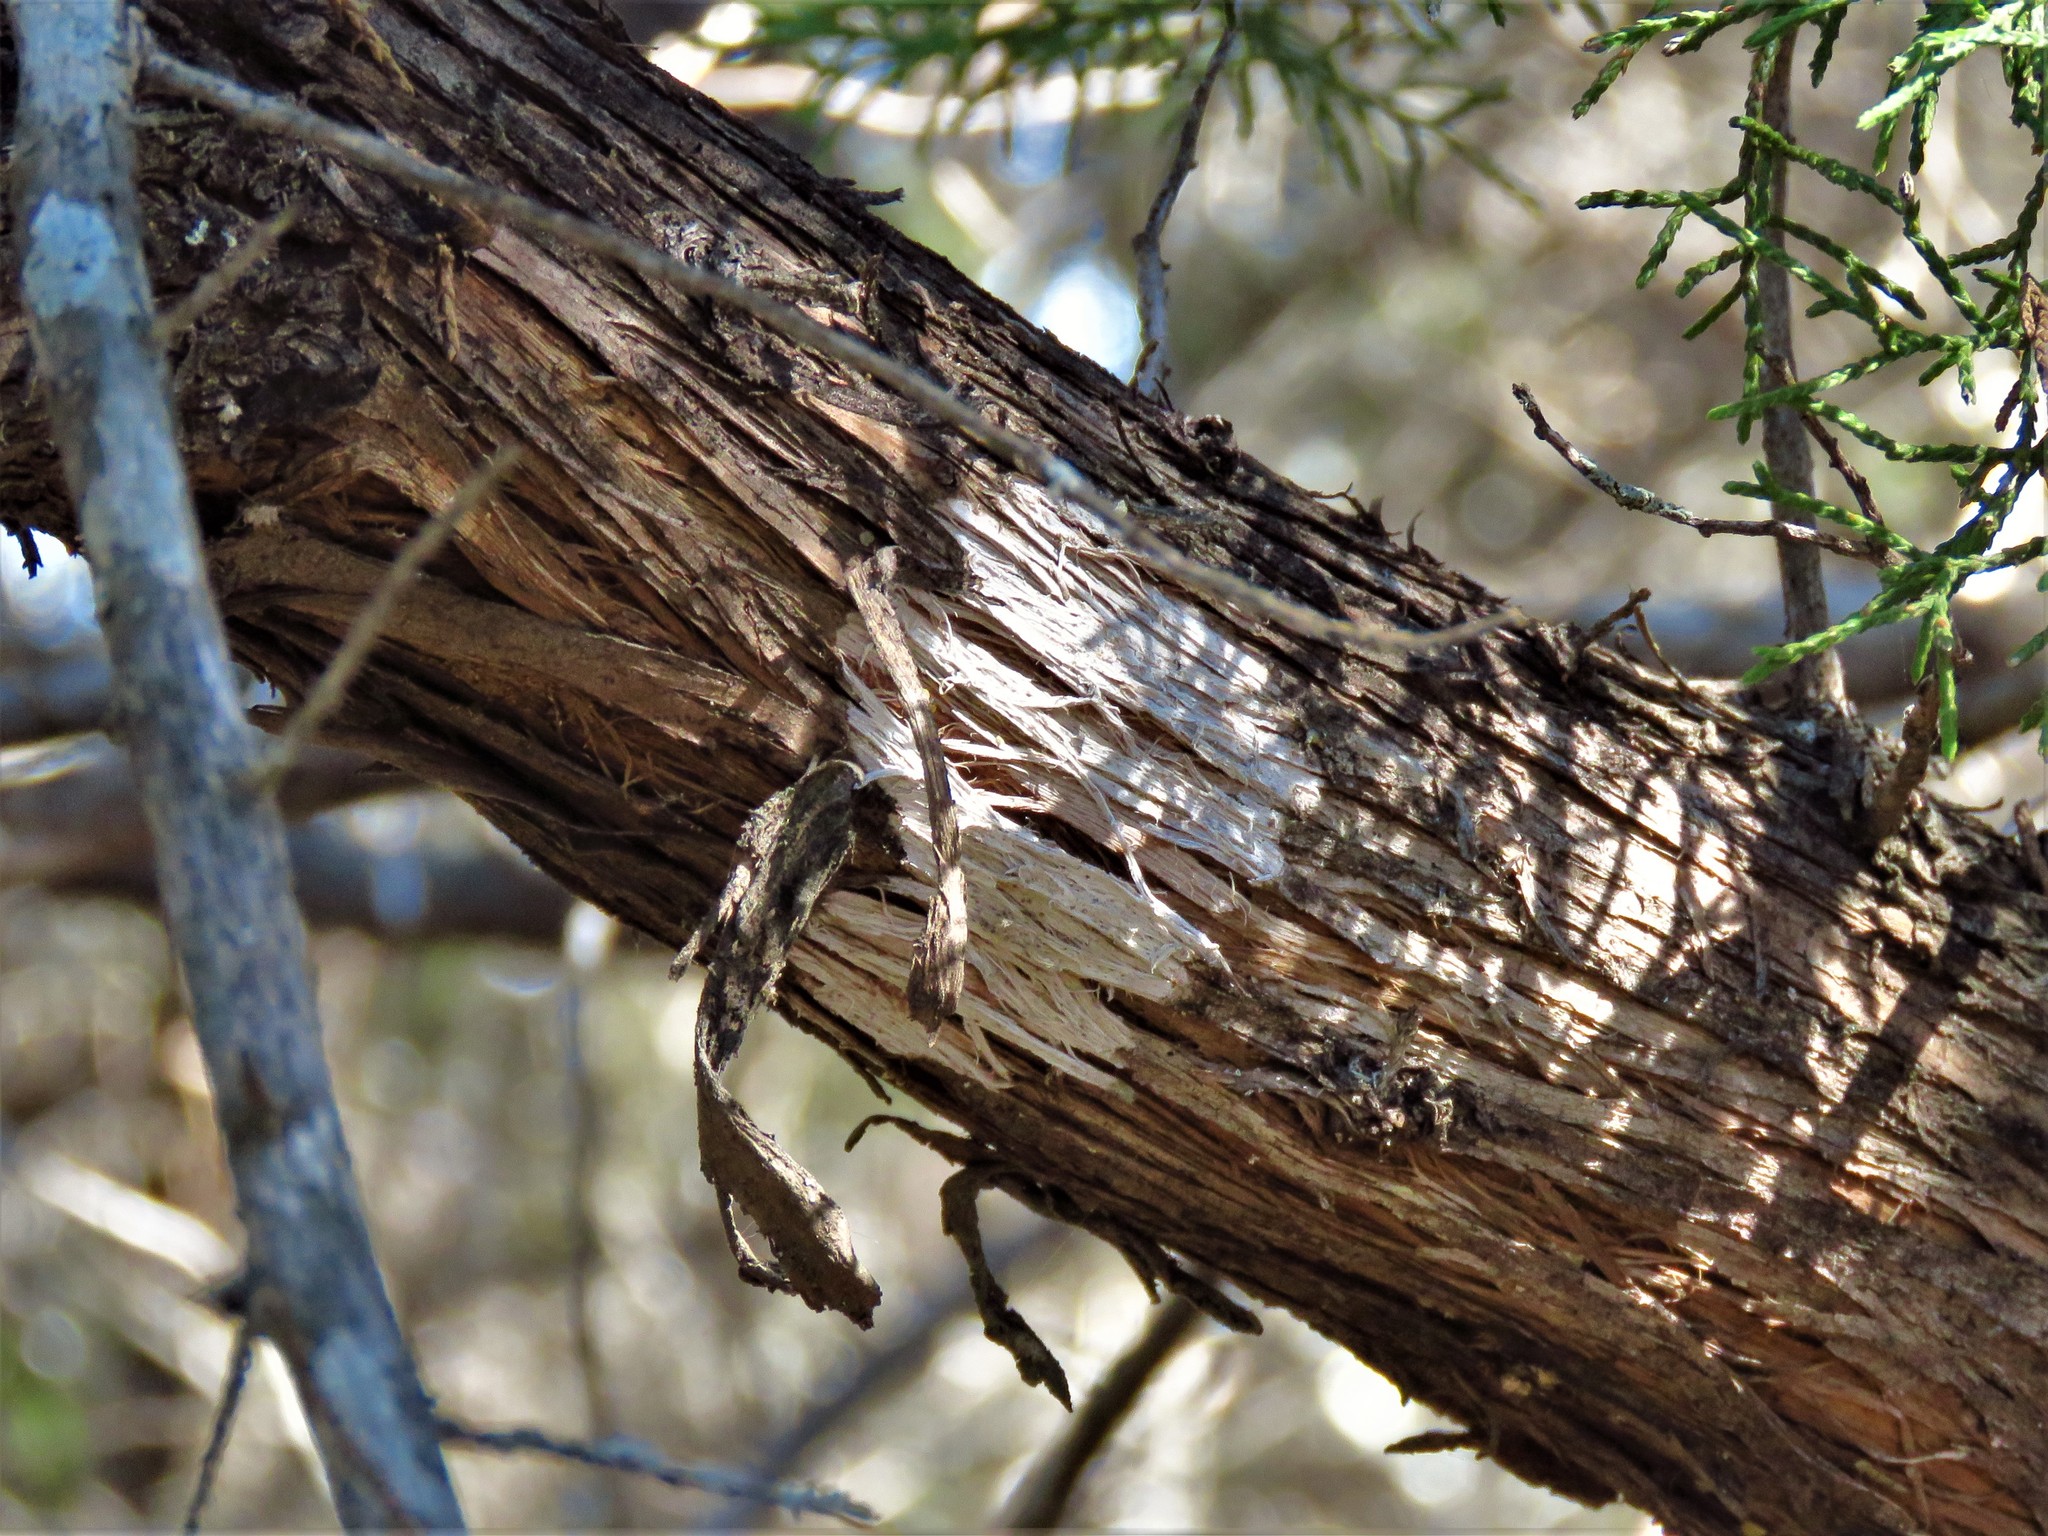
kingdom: Fungi
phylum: Ascomycota
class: Lecanoromycetes
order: Ostropales
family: Stictidaceae
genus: Robergea
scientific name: Robergea
